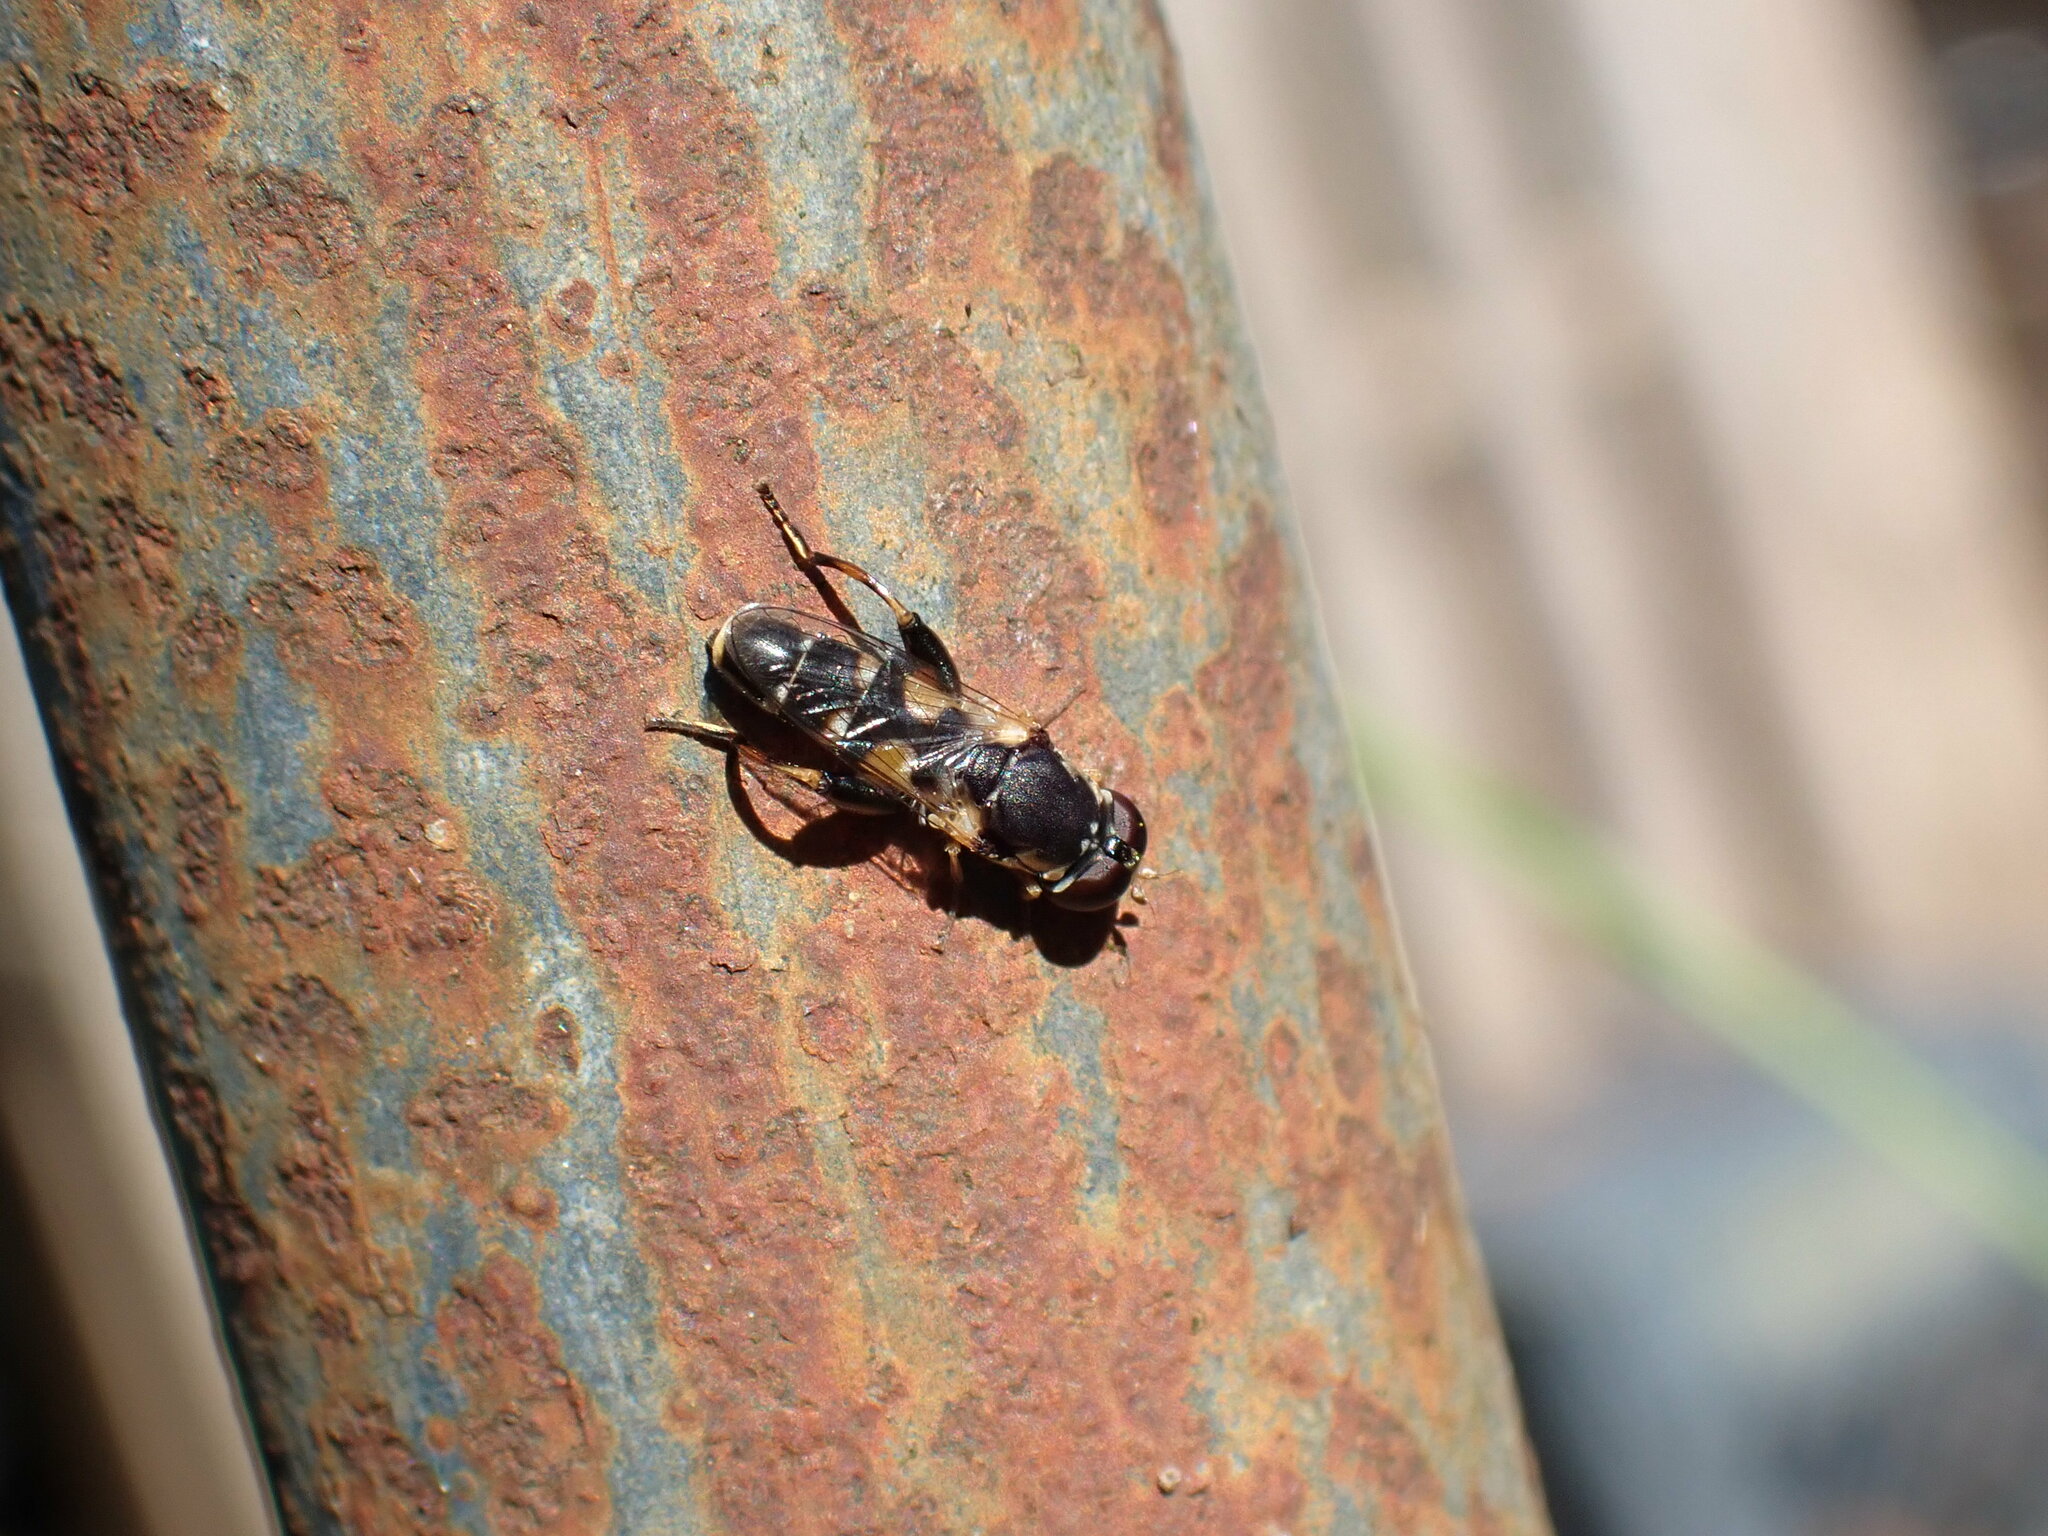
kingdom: Animalia
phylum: Arthropoda
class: Insecta
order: Diptera
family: Syrphidae
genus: Syritta
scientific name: Syritta pipiens
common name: Hover fly
